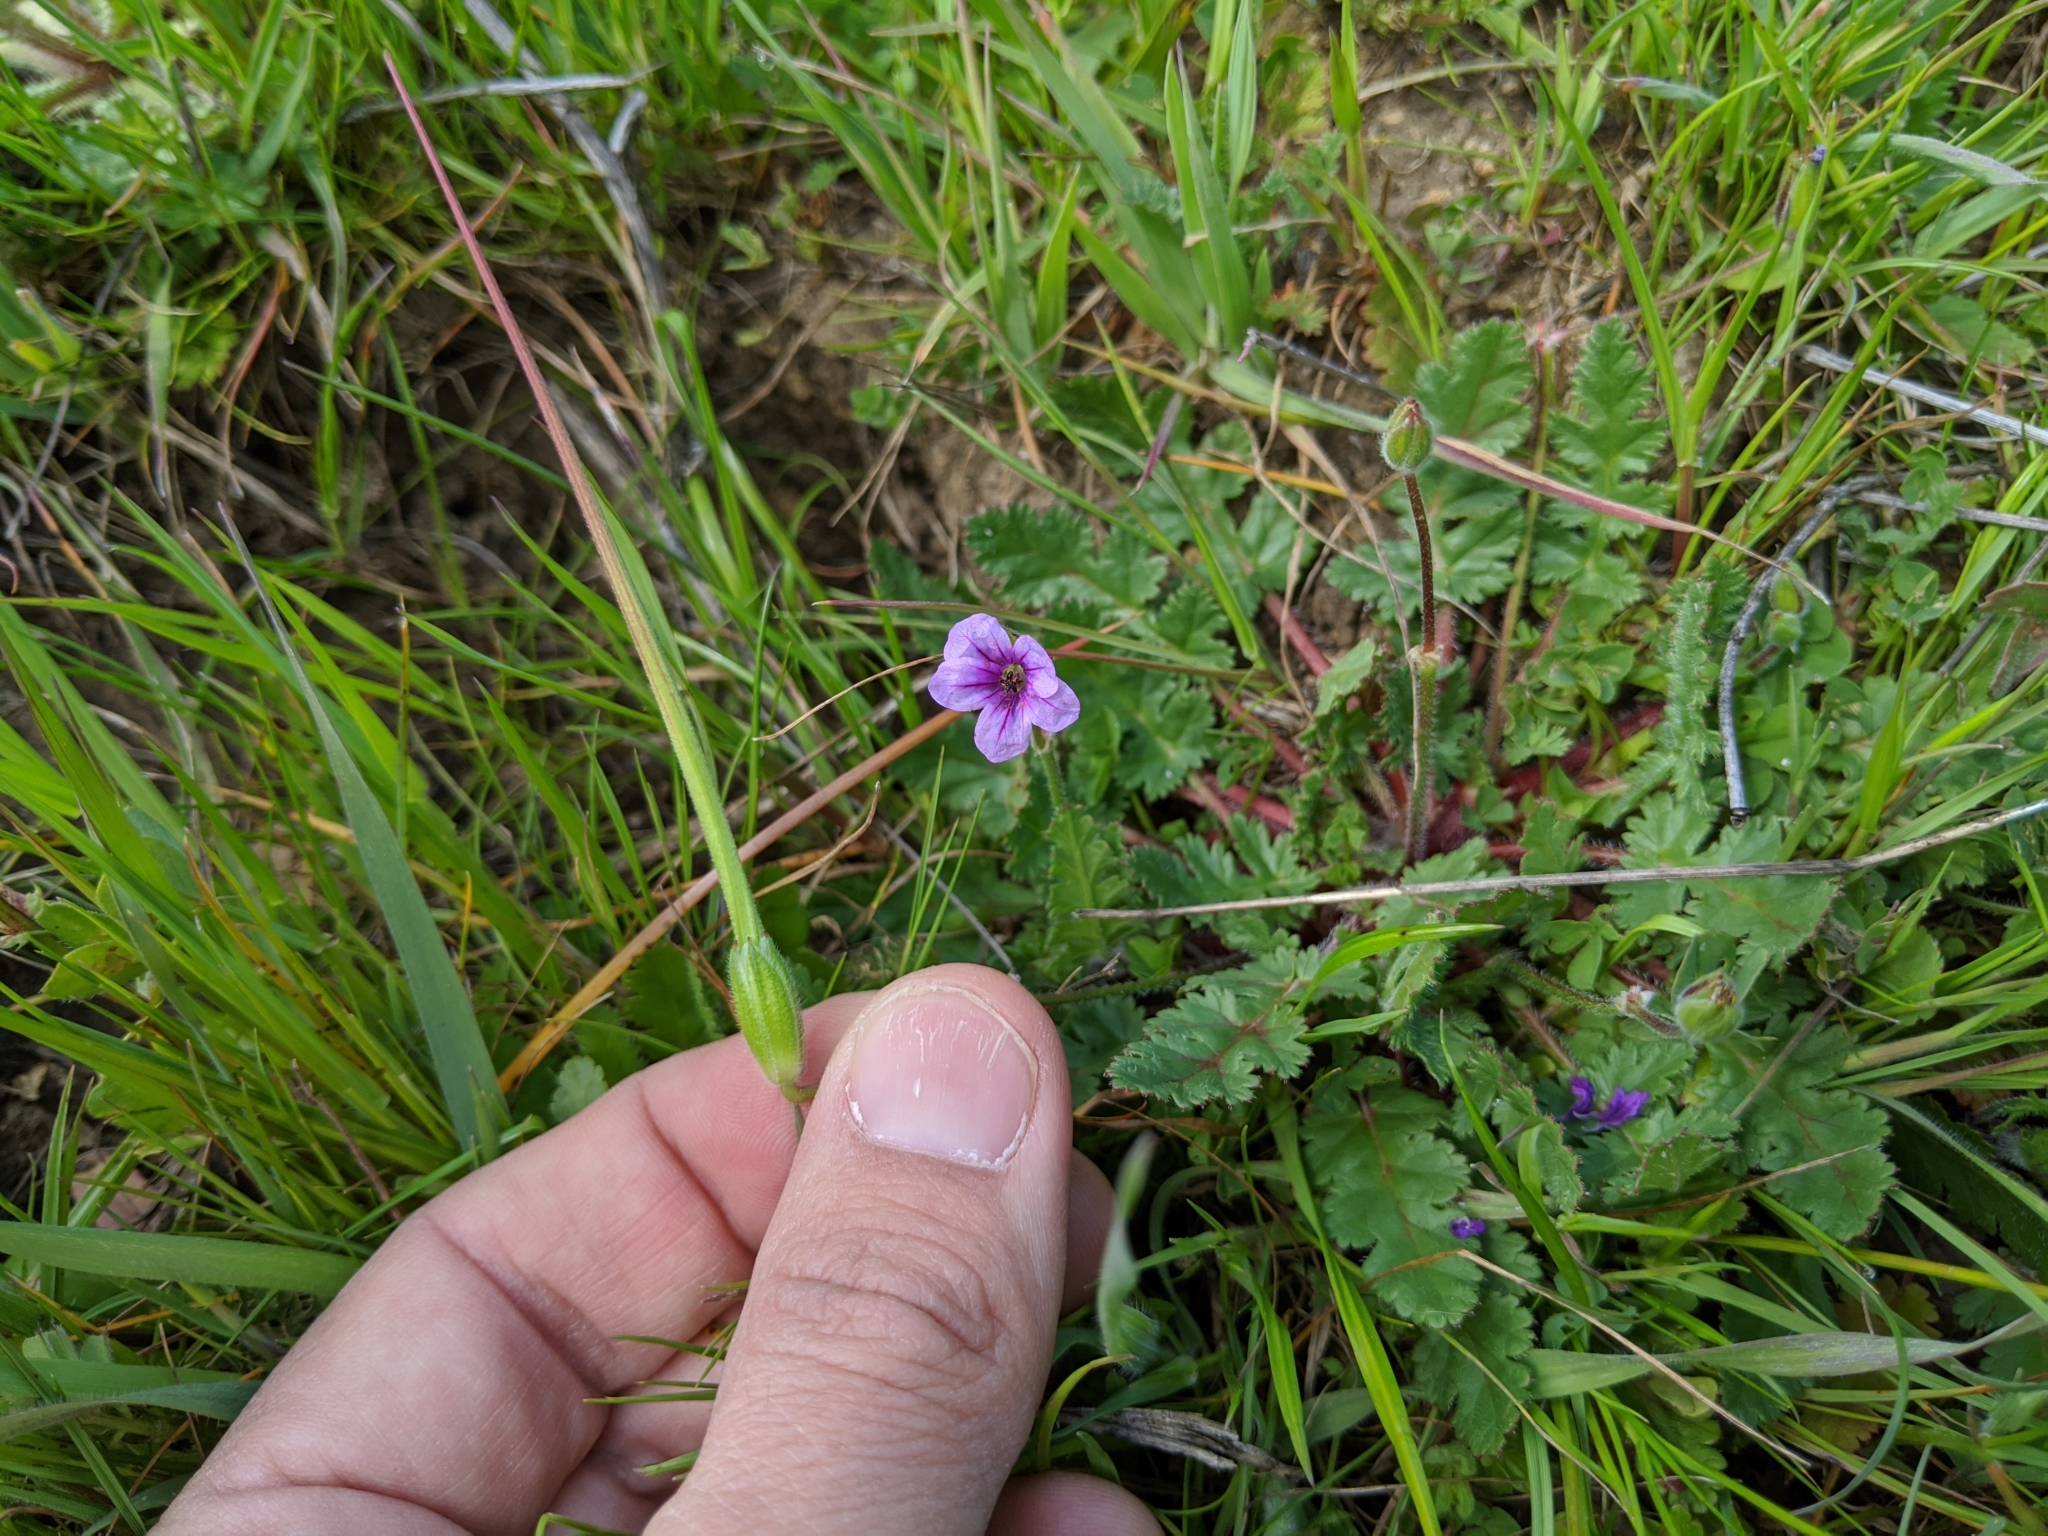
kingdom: Plantae
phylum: Tracheophyta
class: Magnoliopsida
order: Geraniales
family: Geraniaceae
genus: Erodium
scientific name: Erodium botrys
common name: Mediterranean stork's-bill
